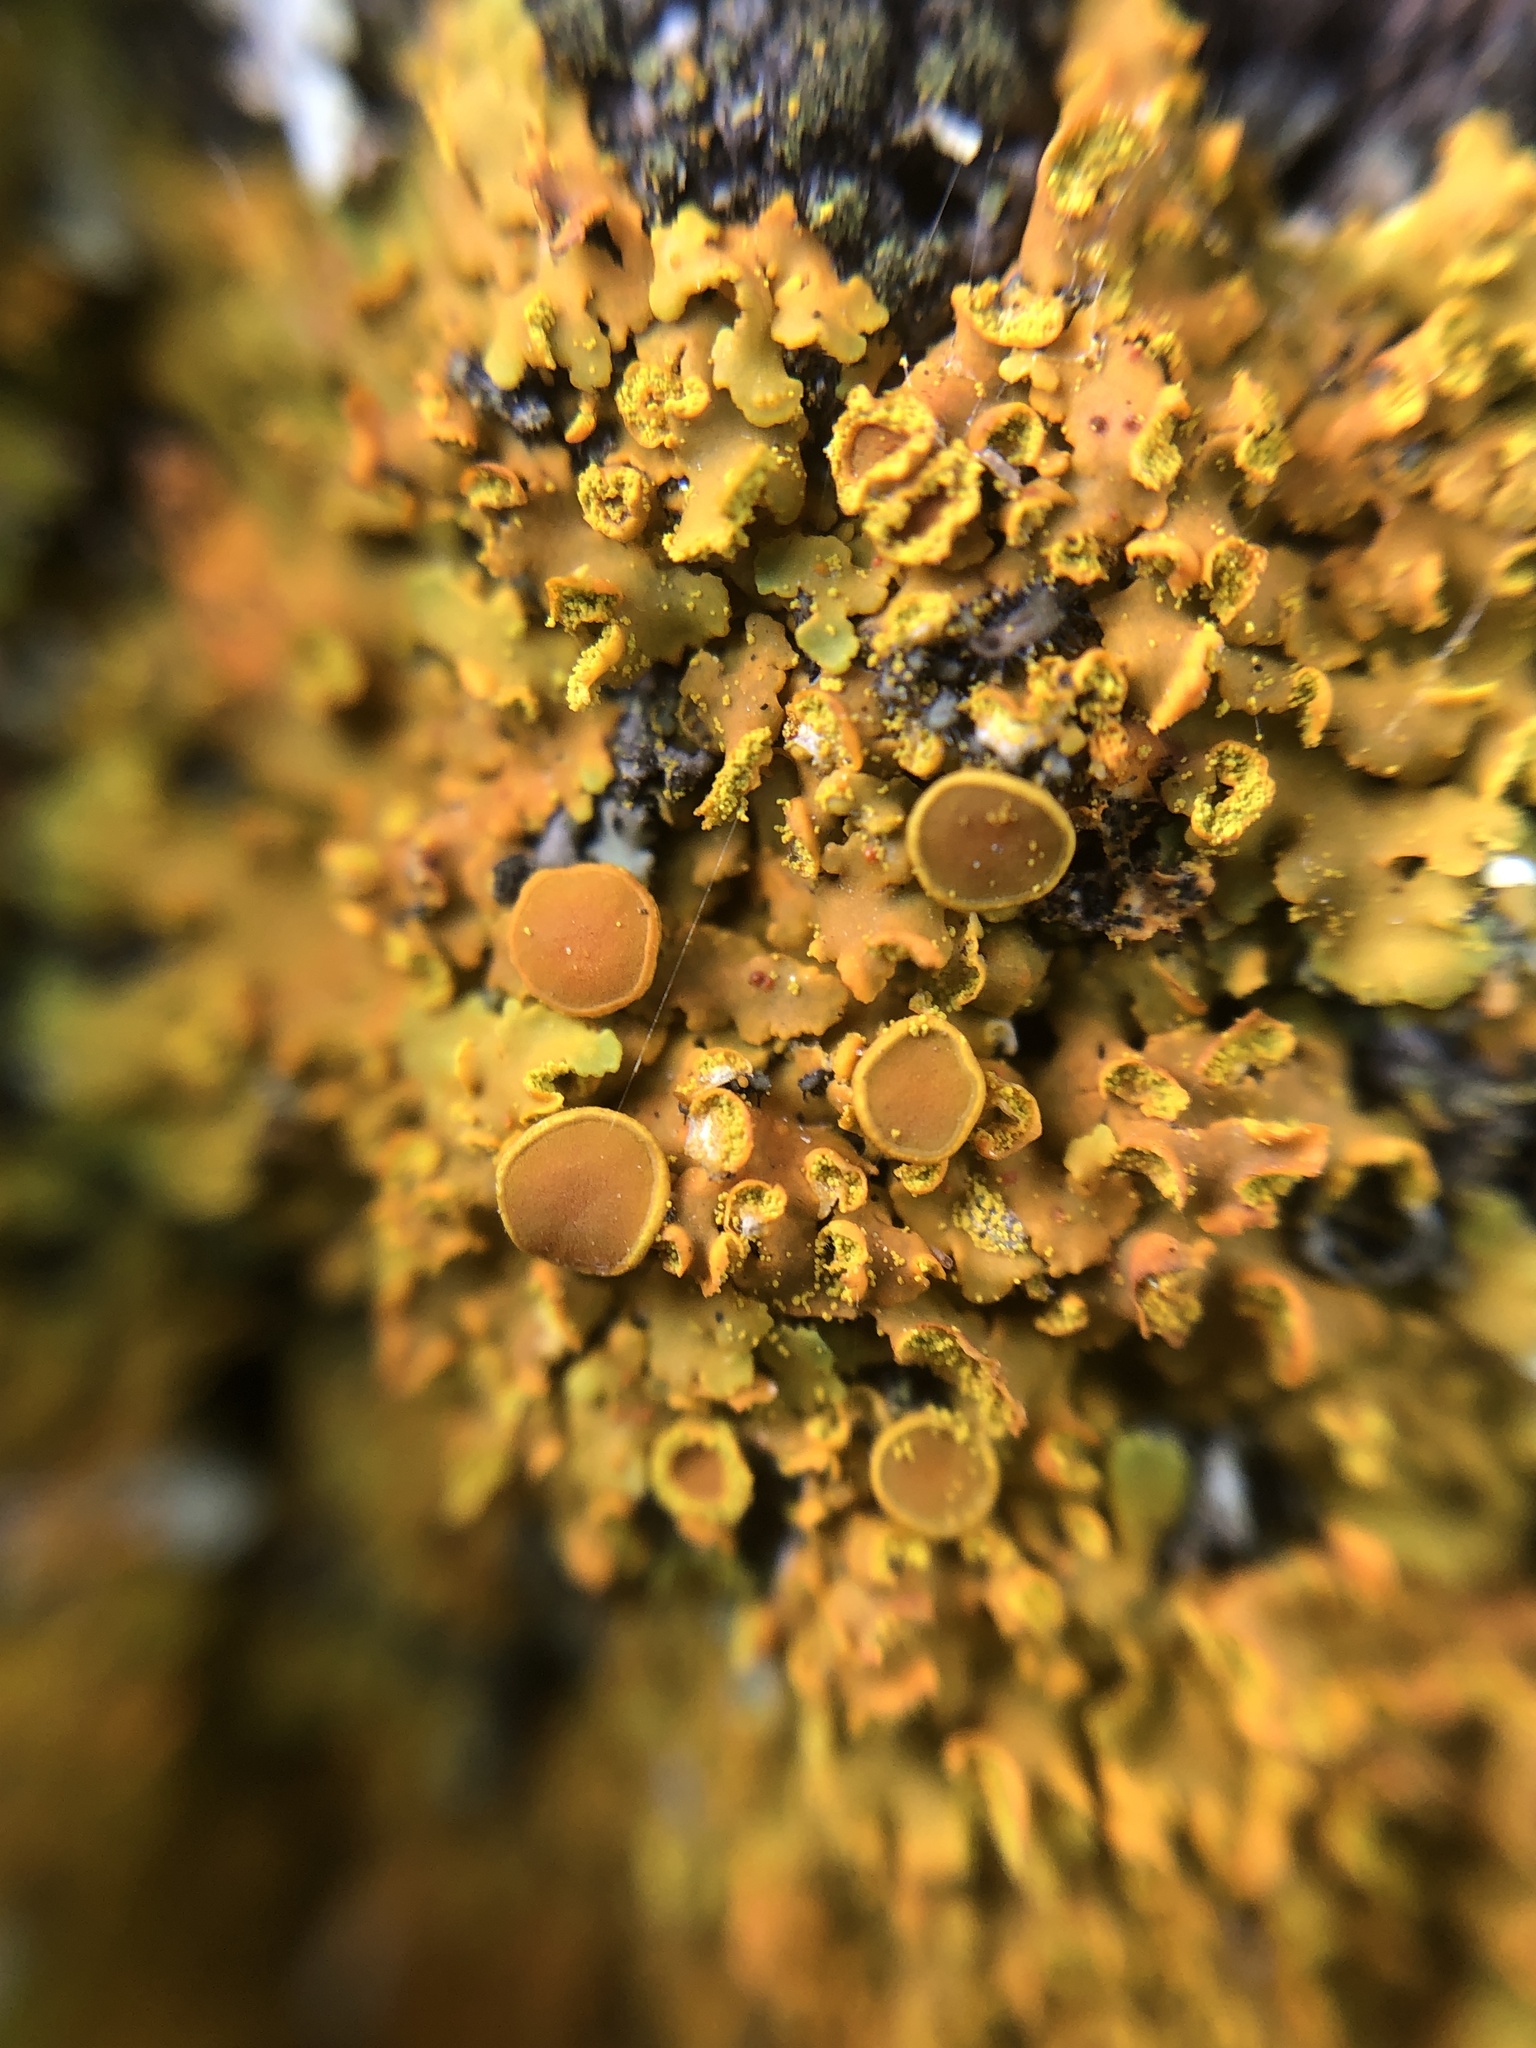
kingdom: Fungi
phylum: Ascomycota
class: Lecanoromycetes
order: Teloschistales
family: Teloschistaceae
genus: Oxneria
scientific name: Oxneria fallax
